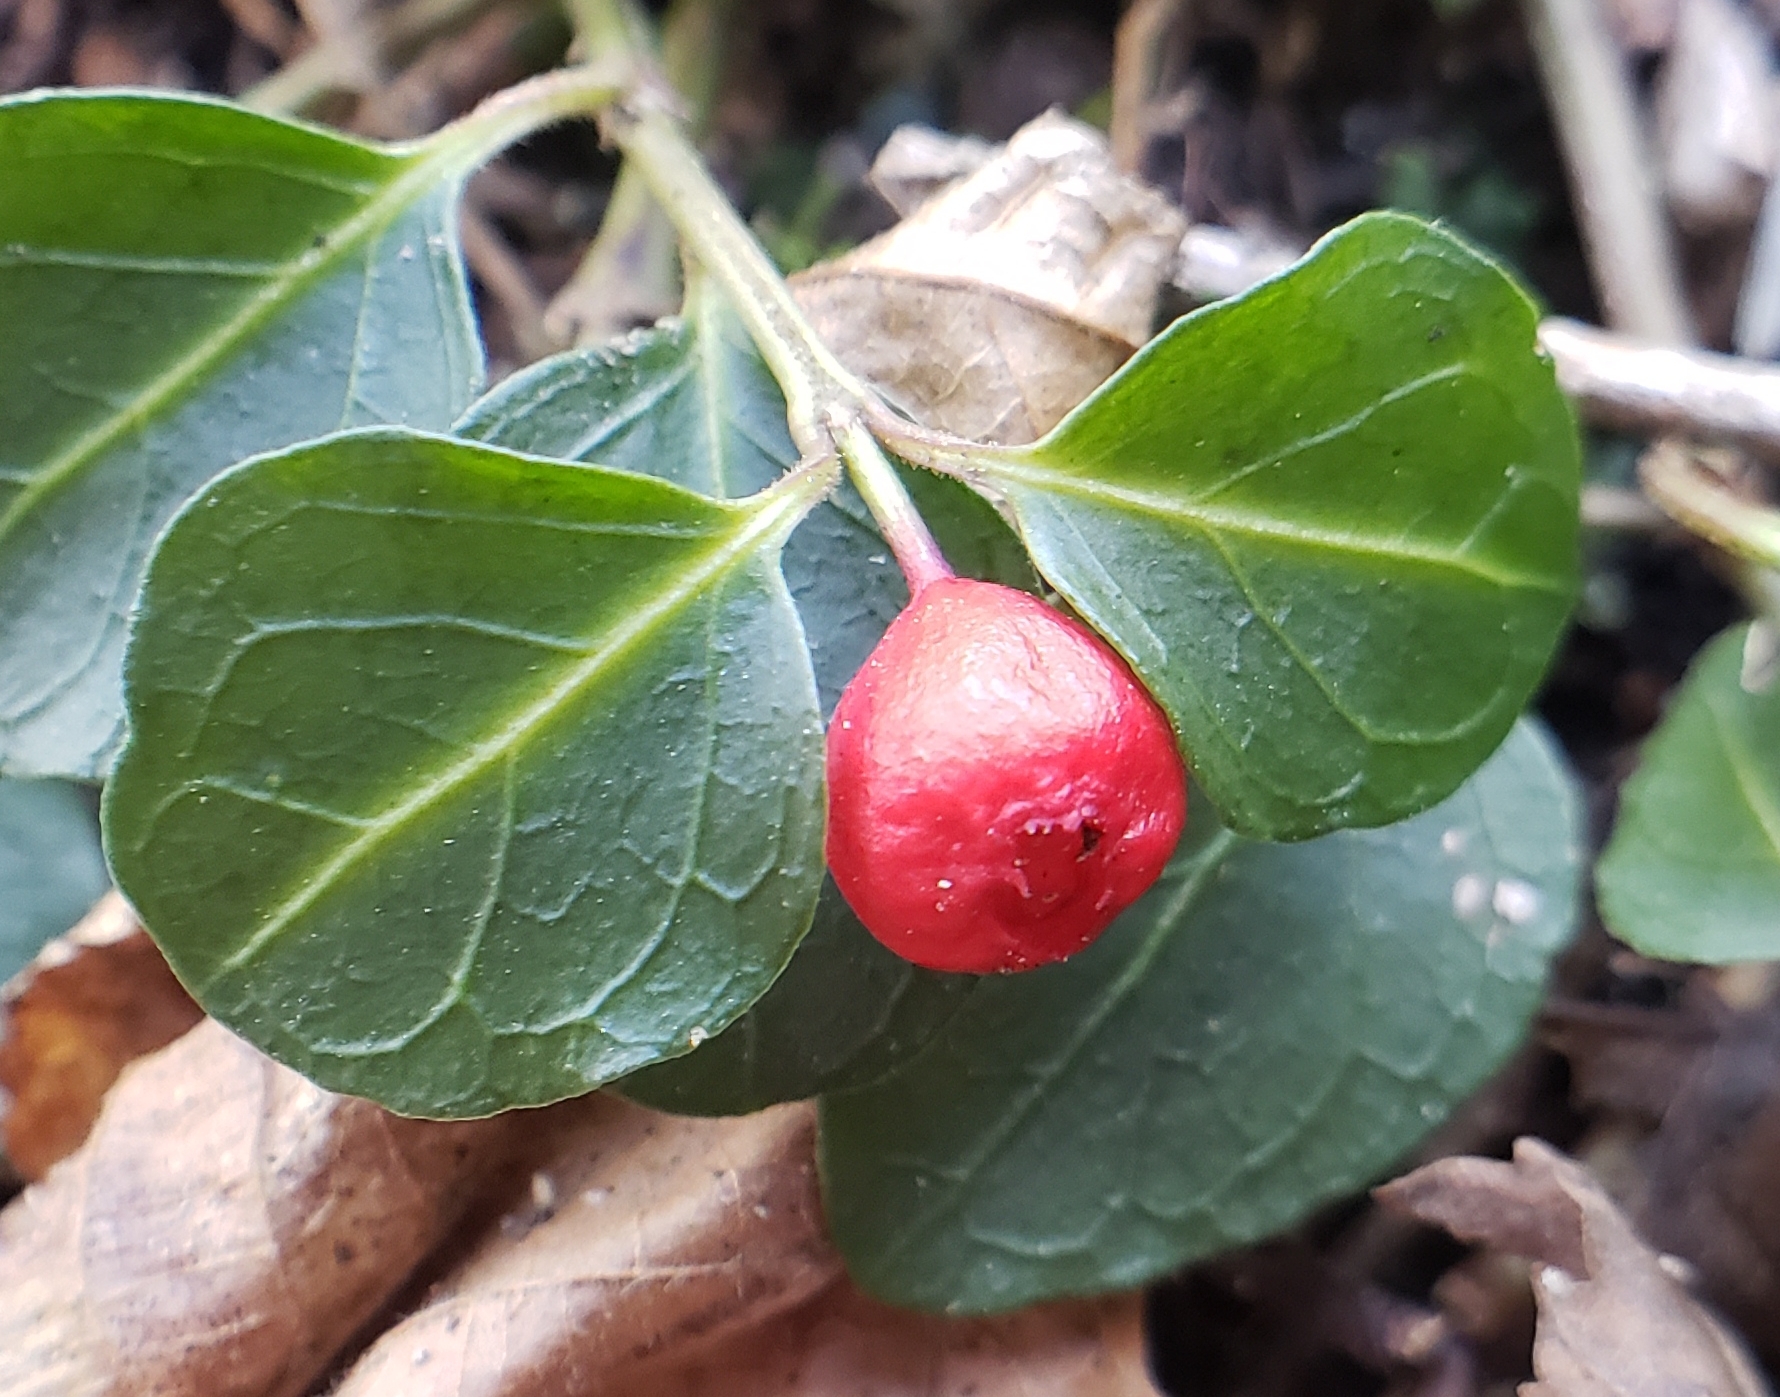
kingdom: Plantae
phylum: Tracheophyta
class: Magnoliopsida
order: Gentianales
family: Rubiaceae
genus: Mitchella
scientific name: Mitchella repens
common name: Partridge-berry
